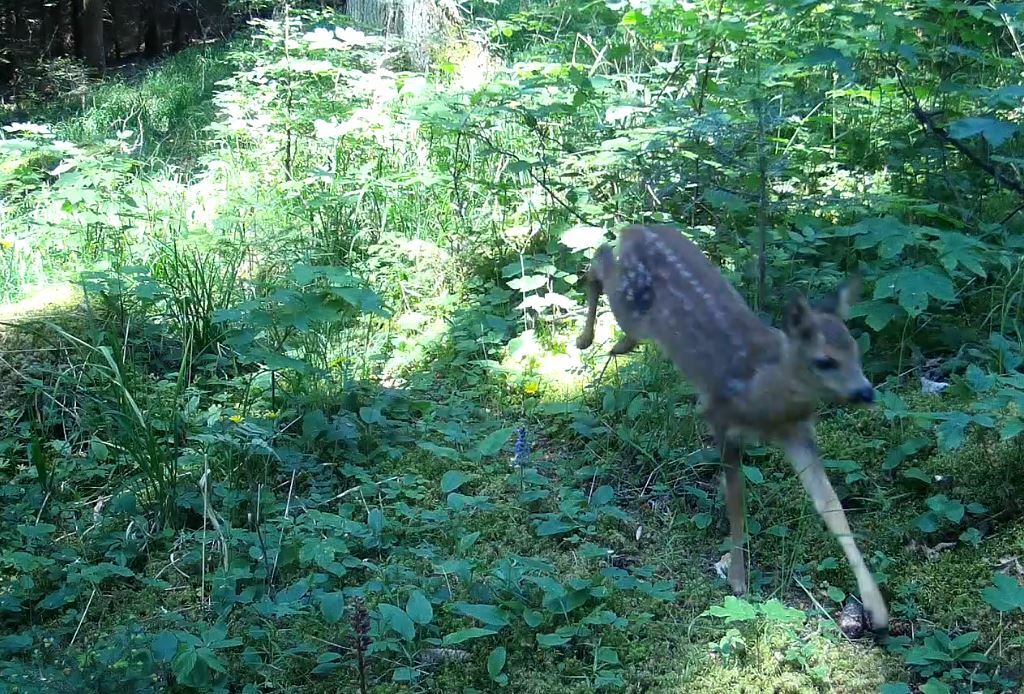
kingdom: Animalia
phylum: Chordata
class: Mammalia
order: Artiodactyla
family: Cervidae
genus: Capreolus
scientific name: Capreolus capreolus
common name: Western roe deer
